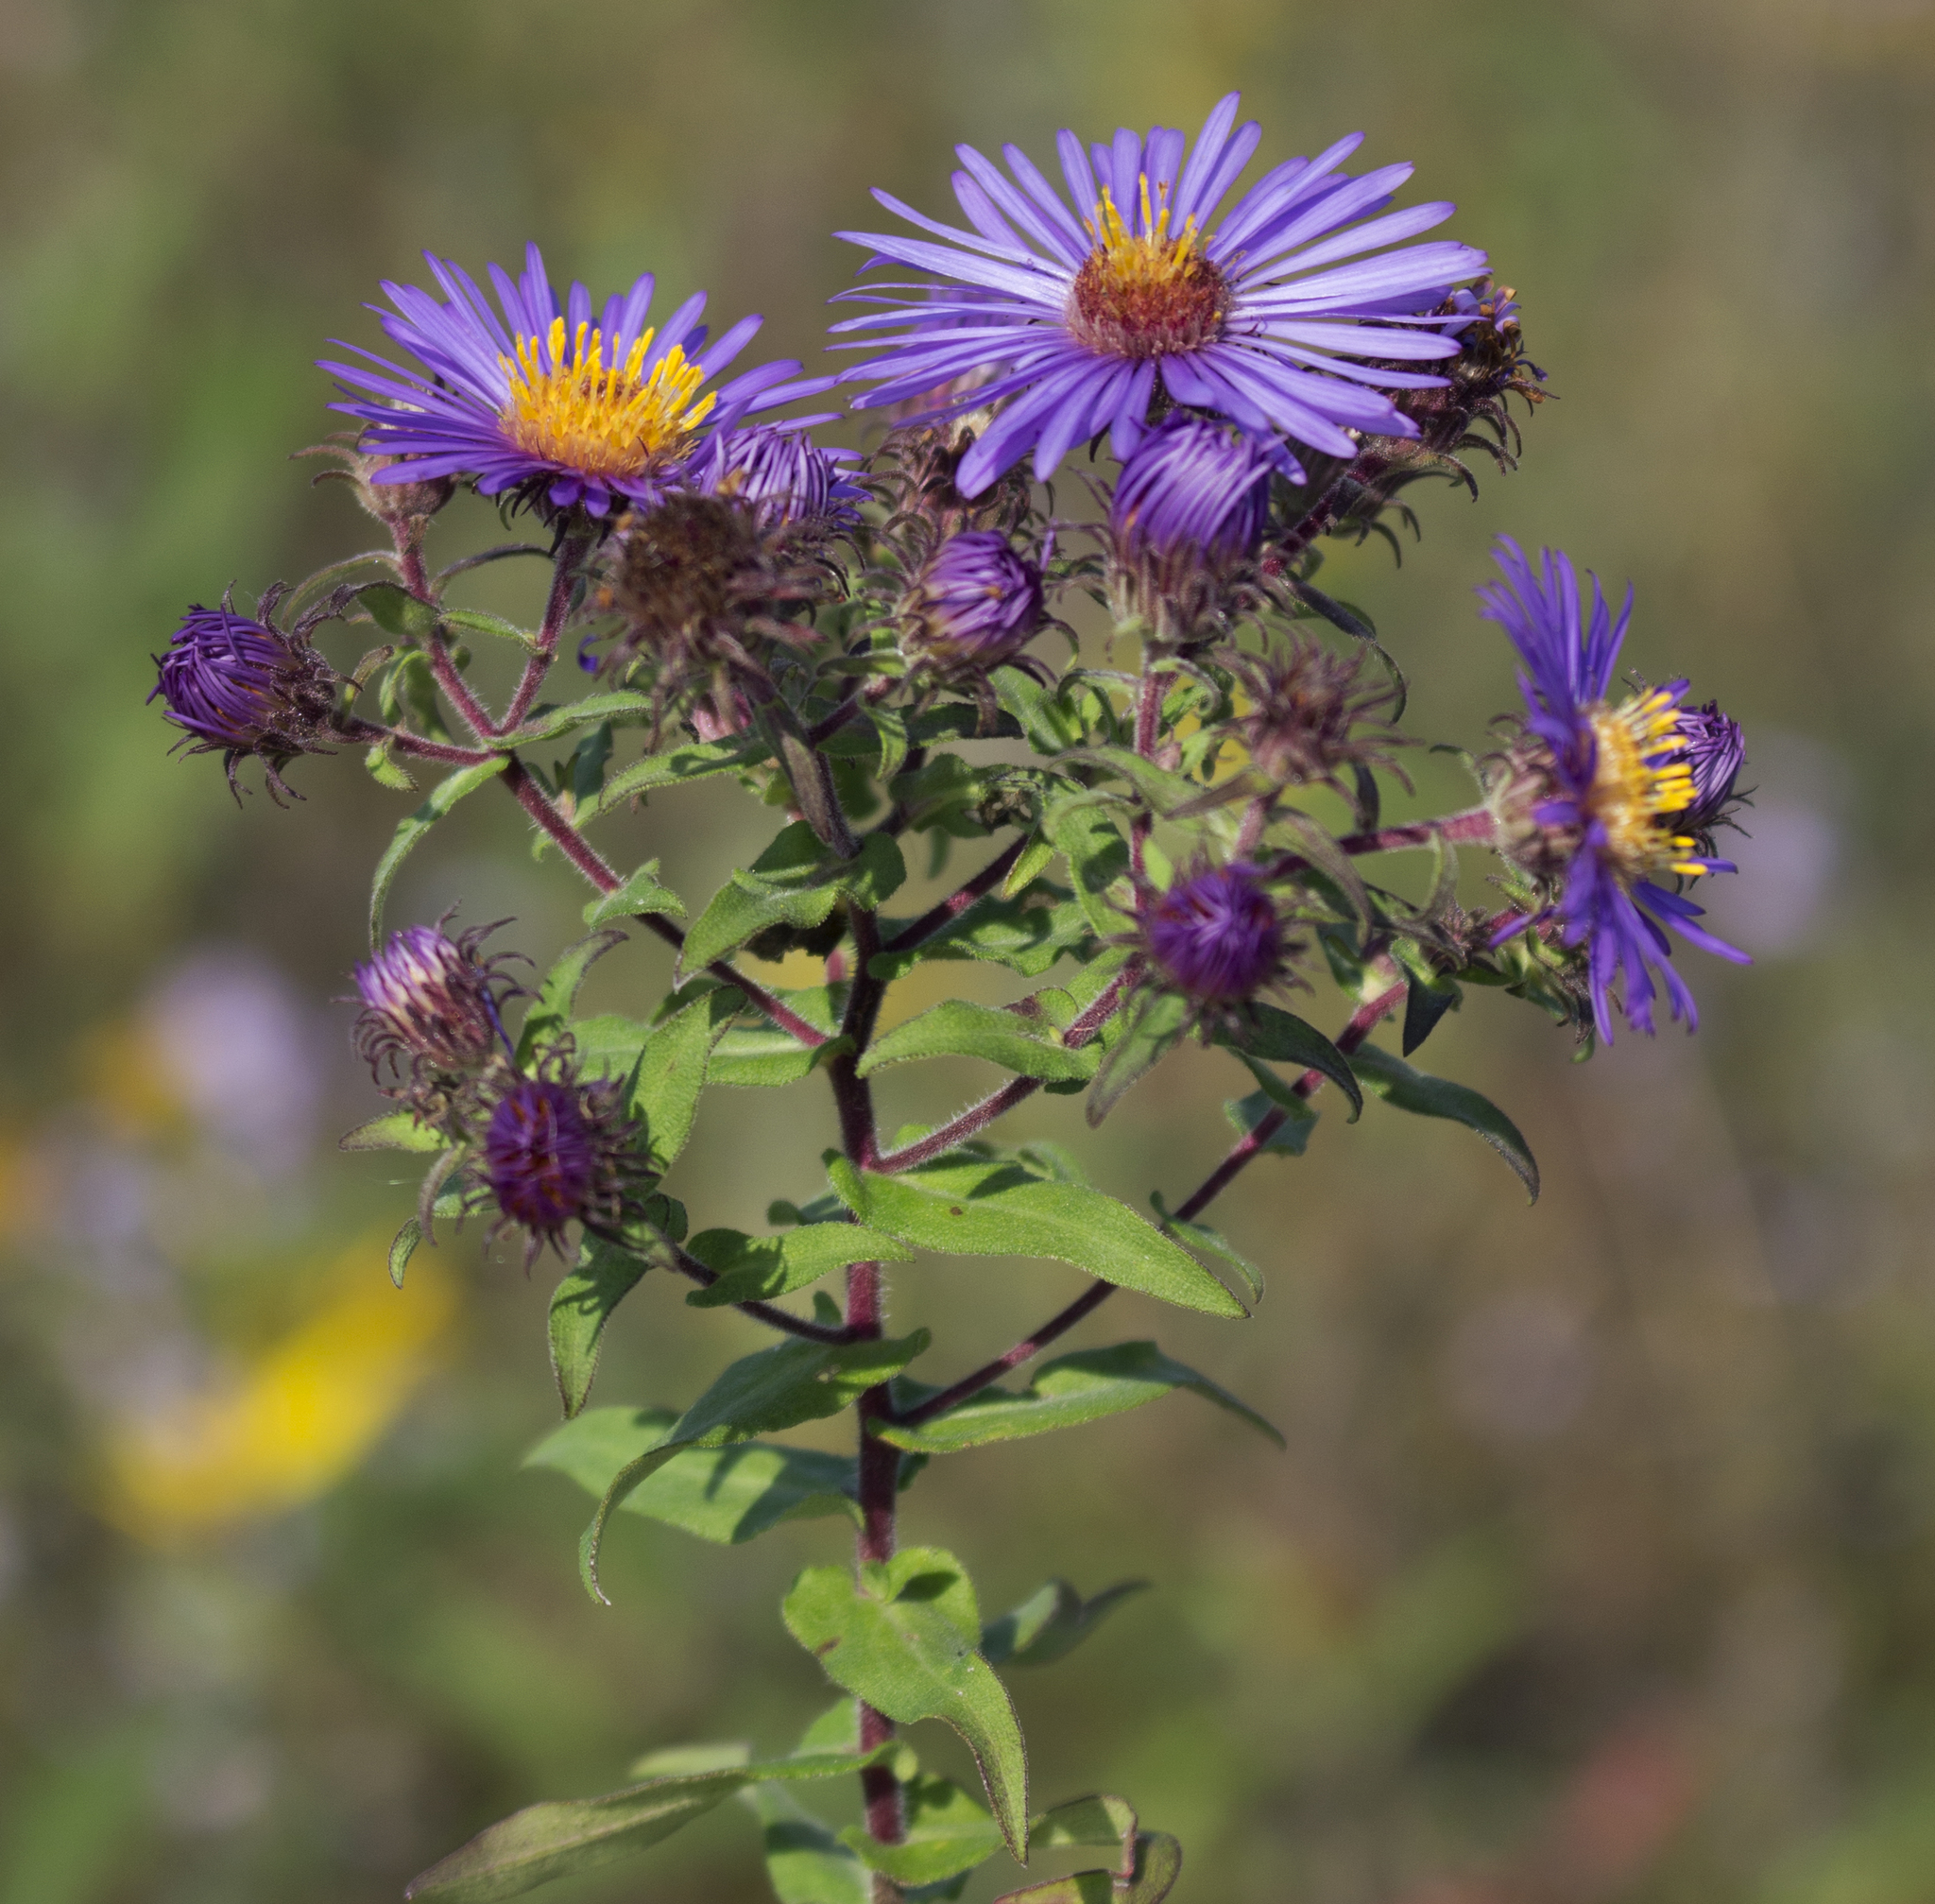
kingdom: Plantae
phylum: Tracheophyta
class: Magnoliopsida
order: Asterales
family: Asteraceae
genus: Symphyotrichum
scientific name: Symphyotrichum novae-angliae
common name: Michaelmas daisy
